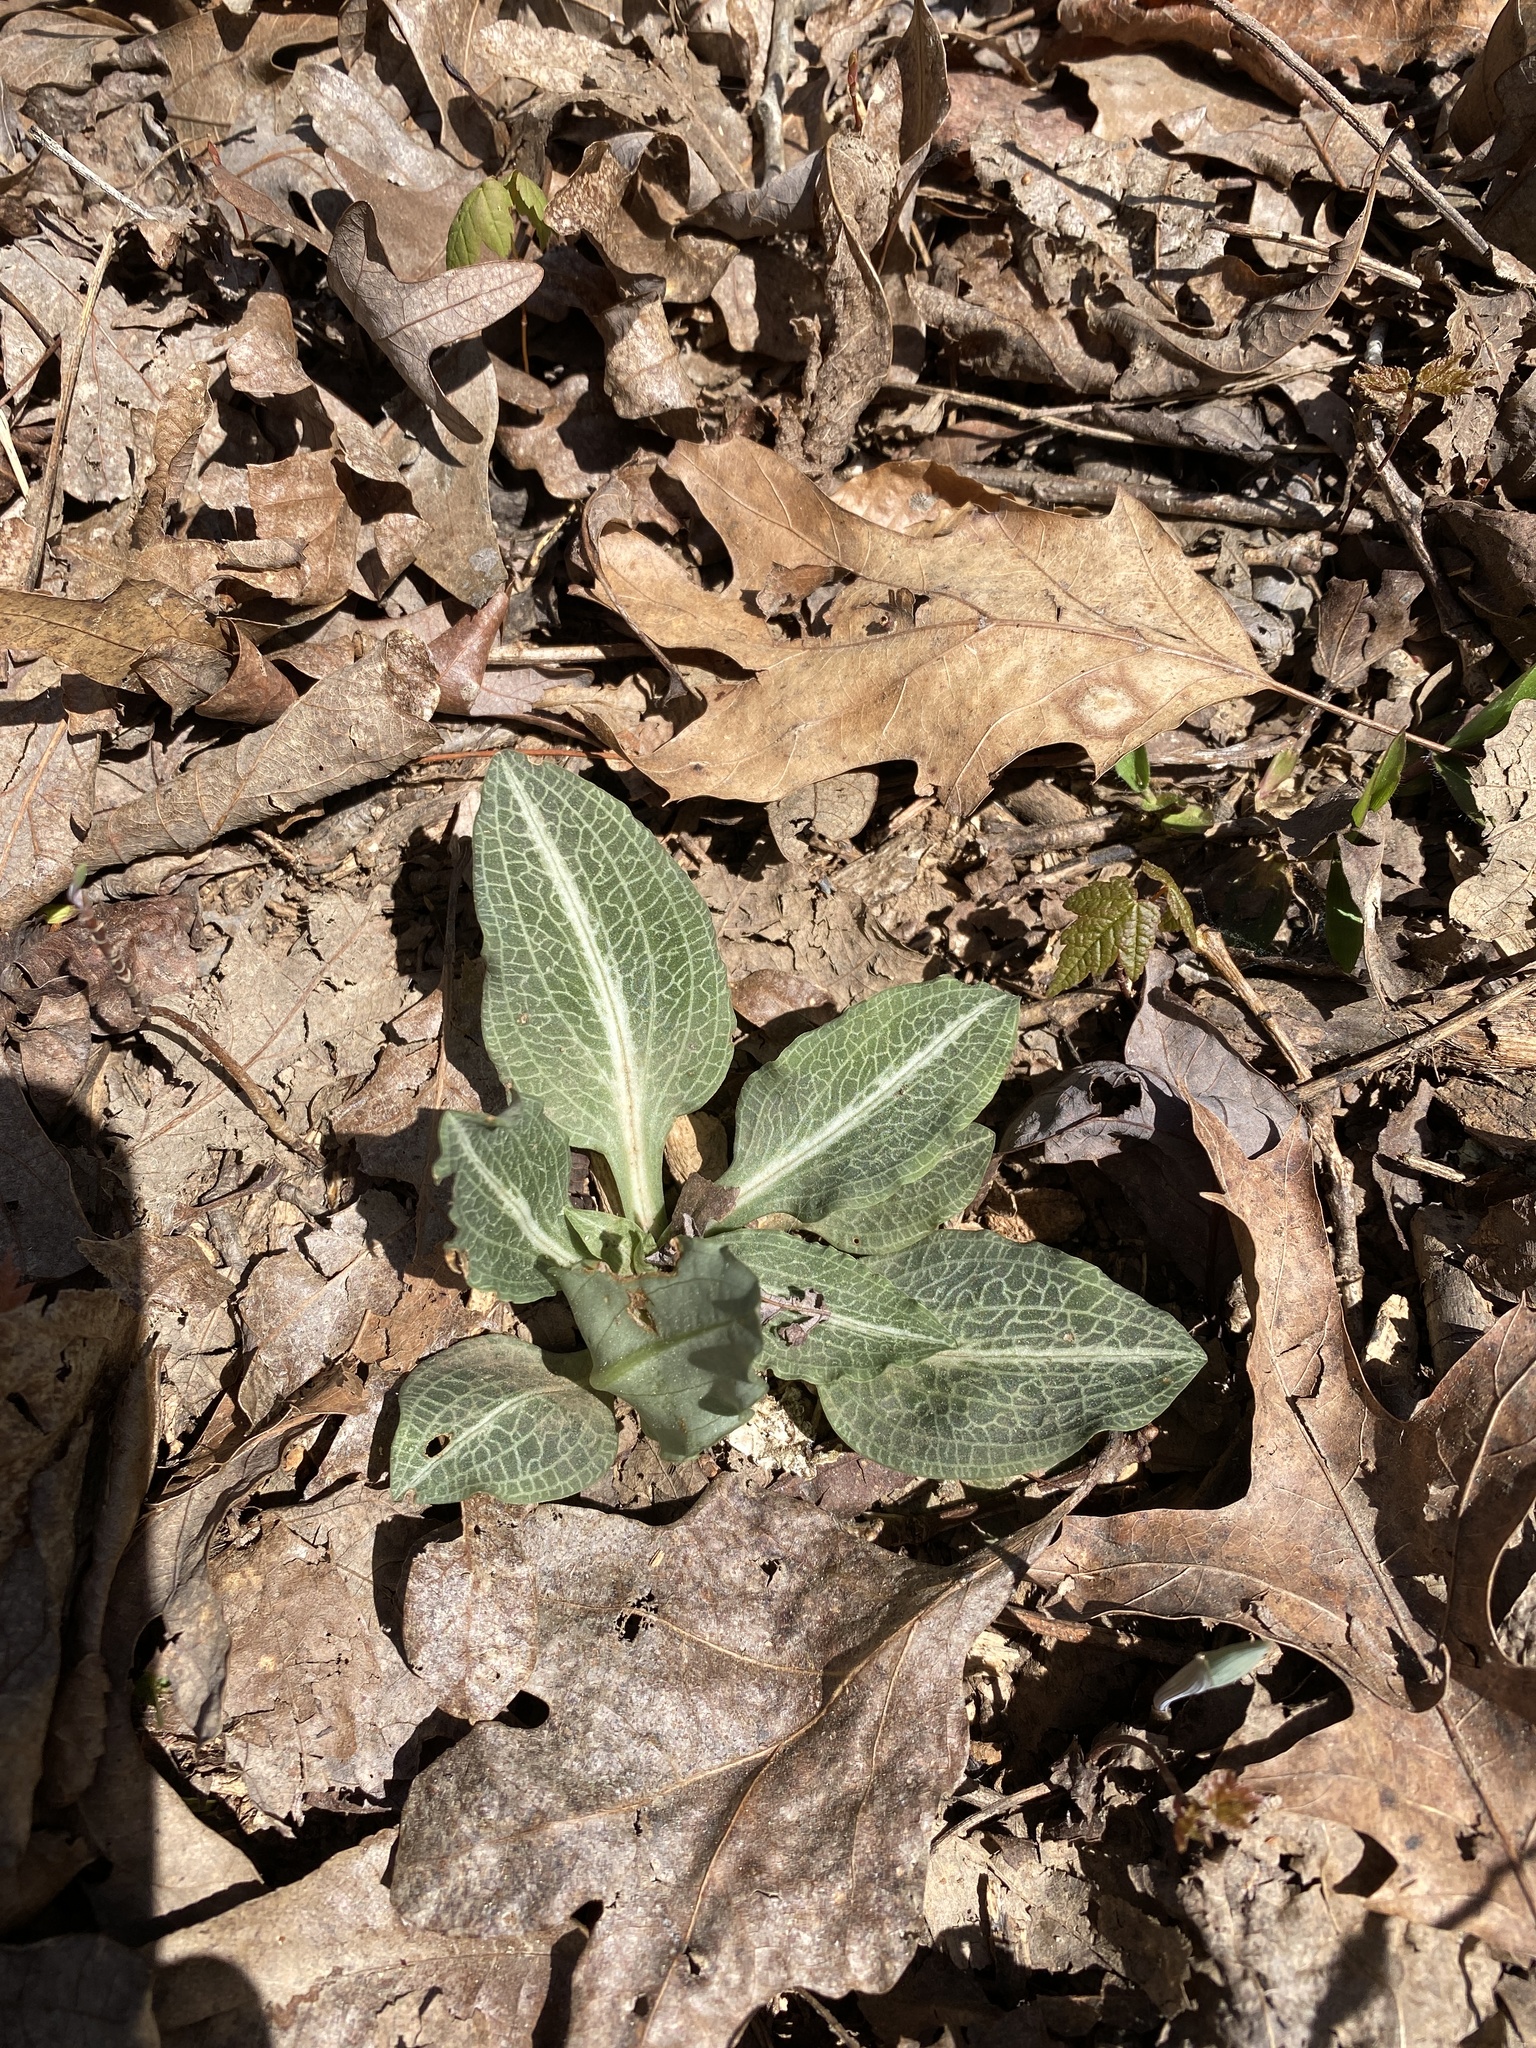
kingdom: Plantae
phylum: Tracheophyta
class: Liliopsida
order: Asparagales
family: Orchidaceae
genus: Goodyera
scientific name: Goodyera pubescens
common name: Downy rattlesnake-plantain
